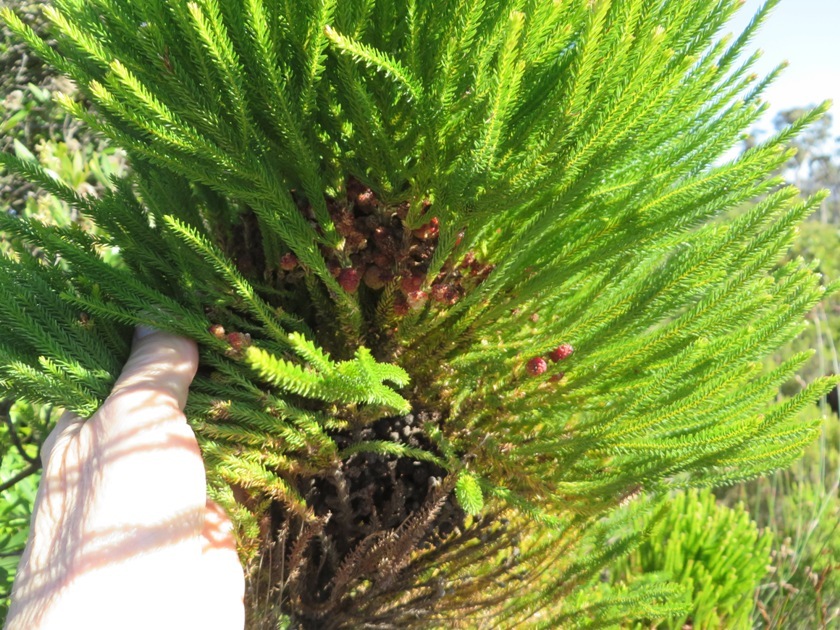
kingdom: Plantae
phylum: Tracheophyta
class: Magnoliopsida
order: Bruniales
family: Bruniaceae
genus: Berzelia
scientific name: Berzelia lanuginosa
